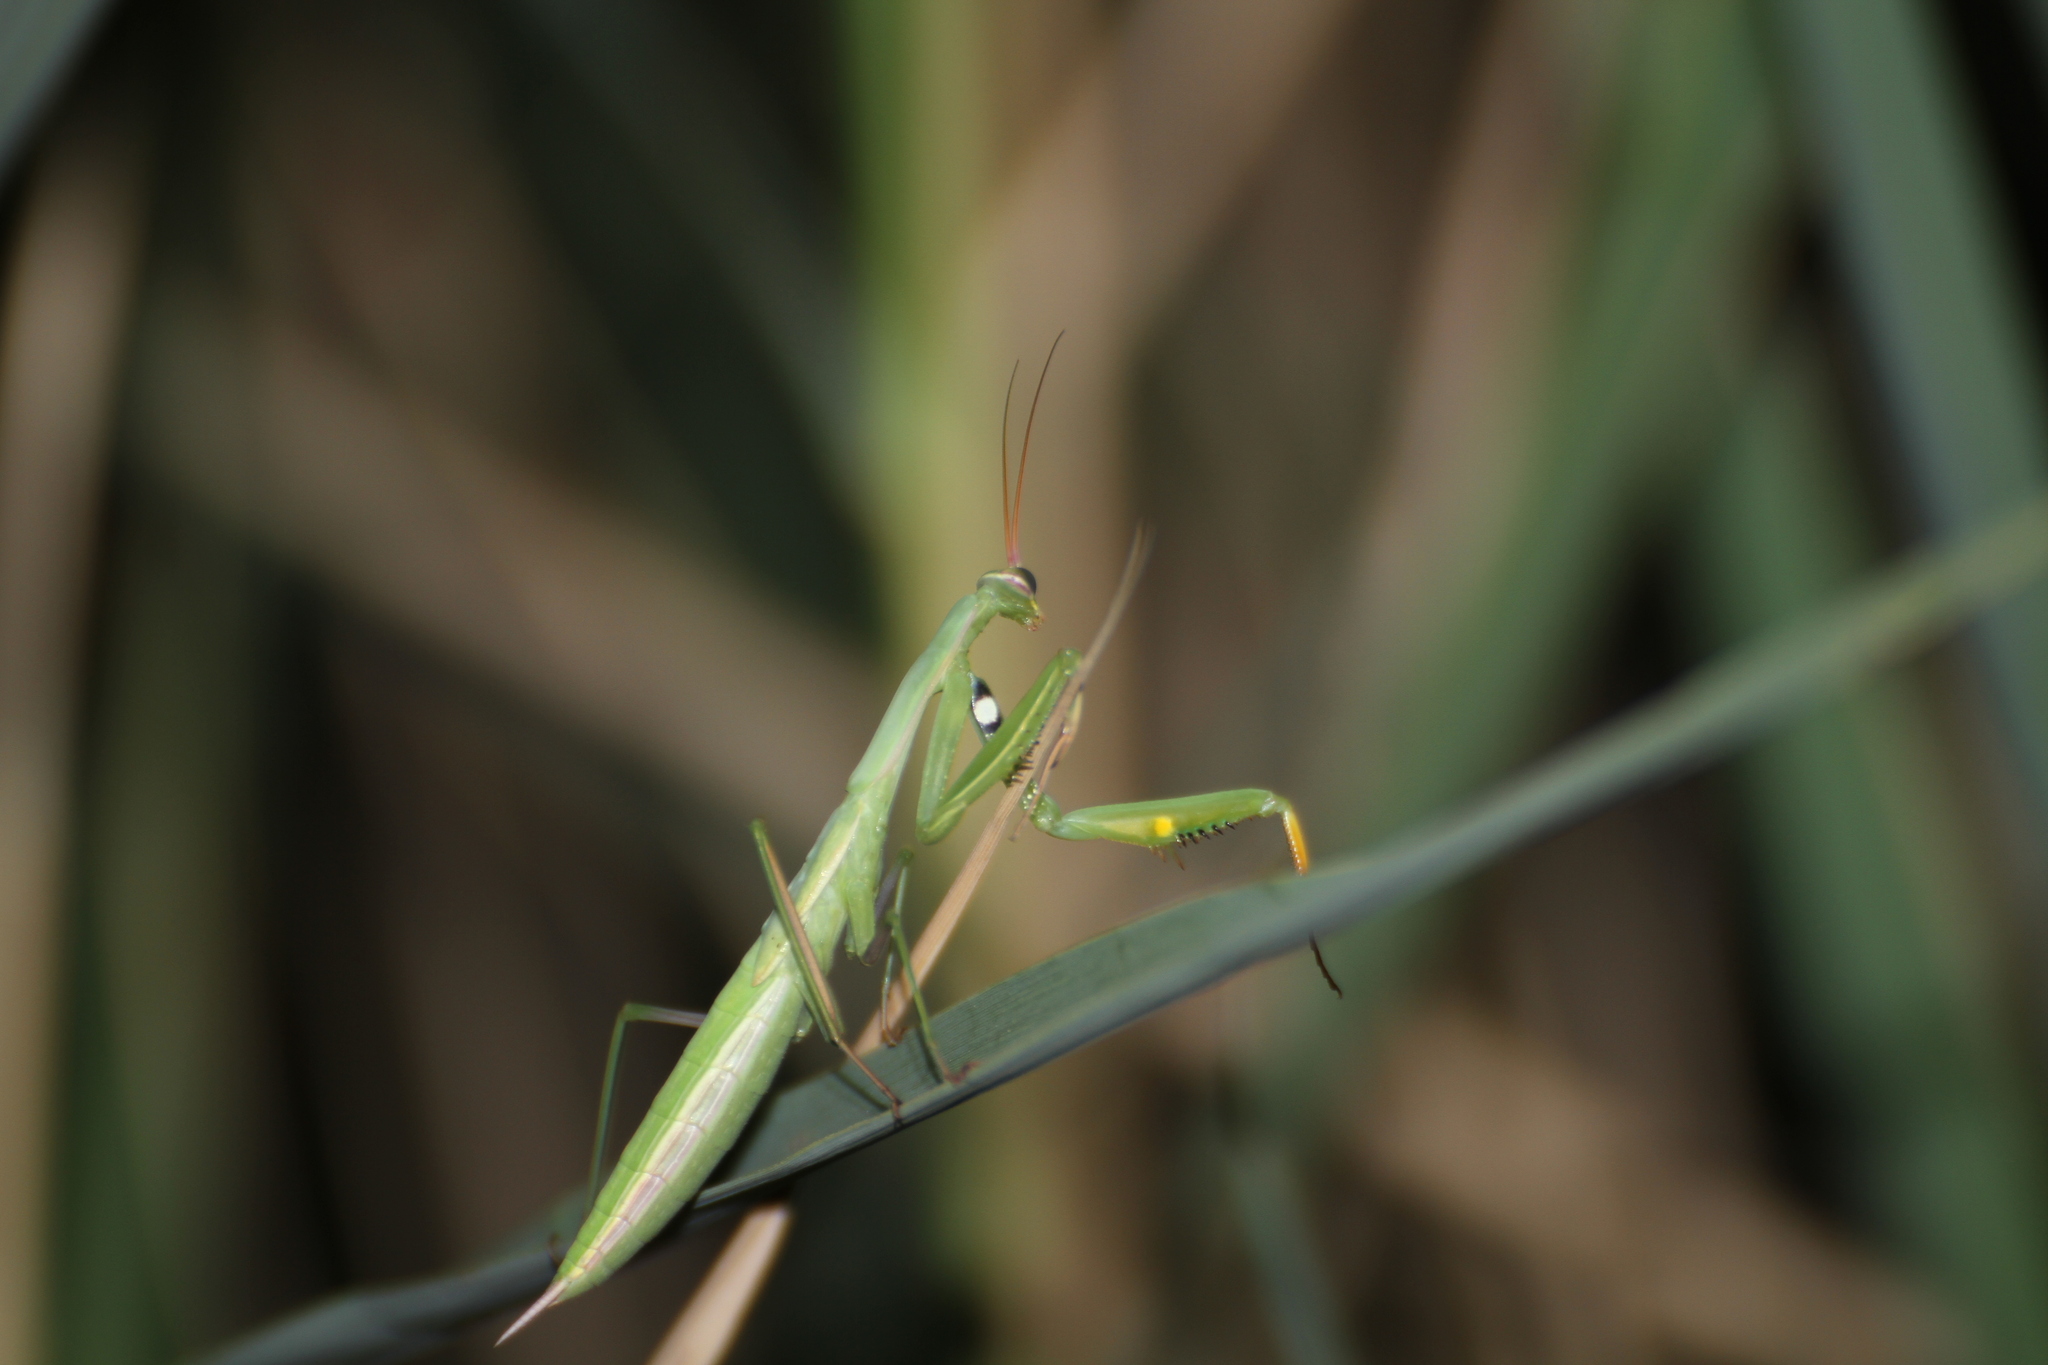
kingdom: Animalia
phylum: Arthropoda
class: Insecta
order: Mantodea
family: Mantidae
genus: Mantis
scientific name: Mantis religiosa
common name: Praying mantis
